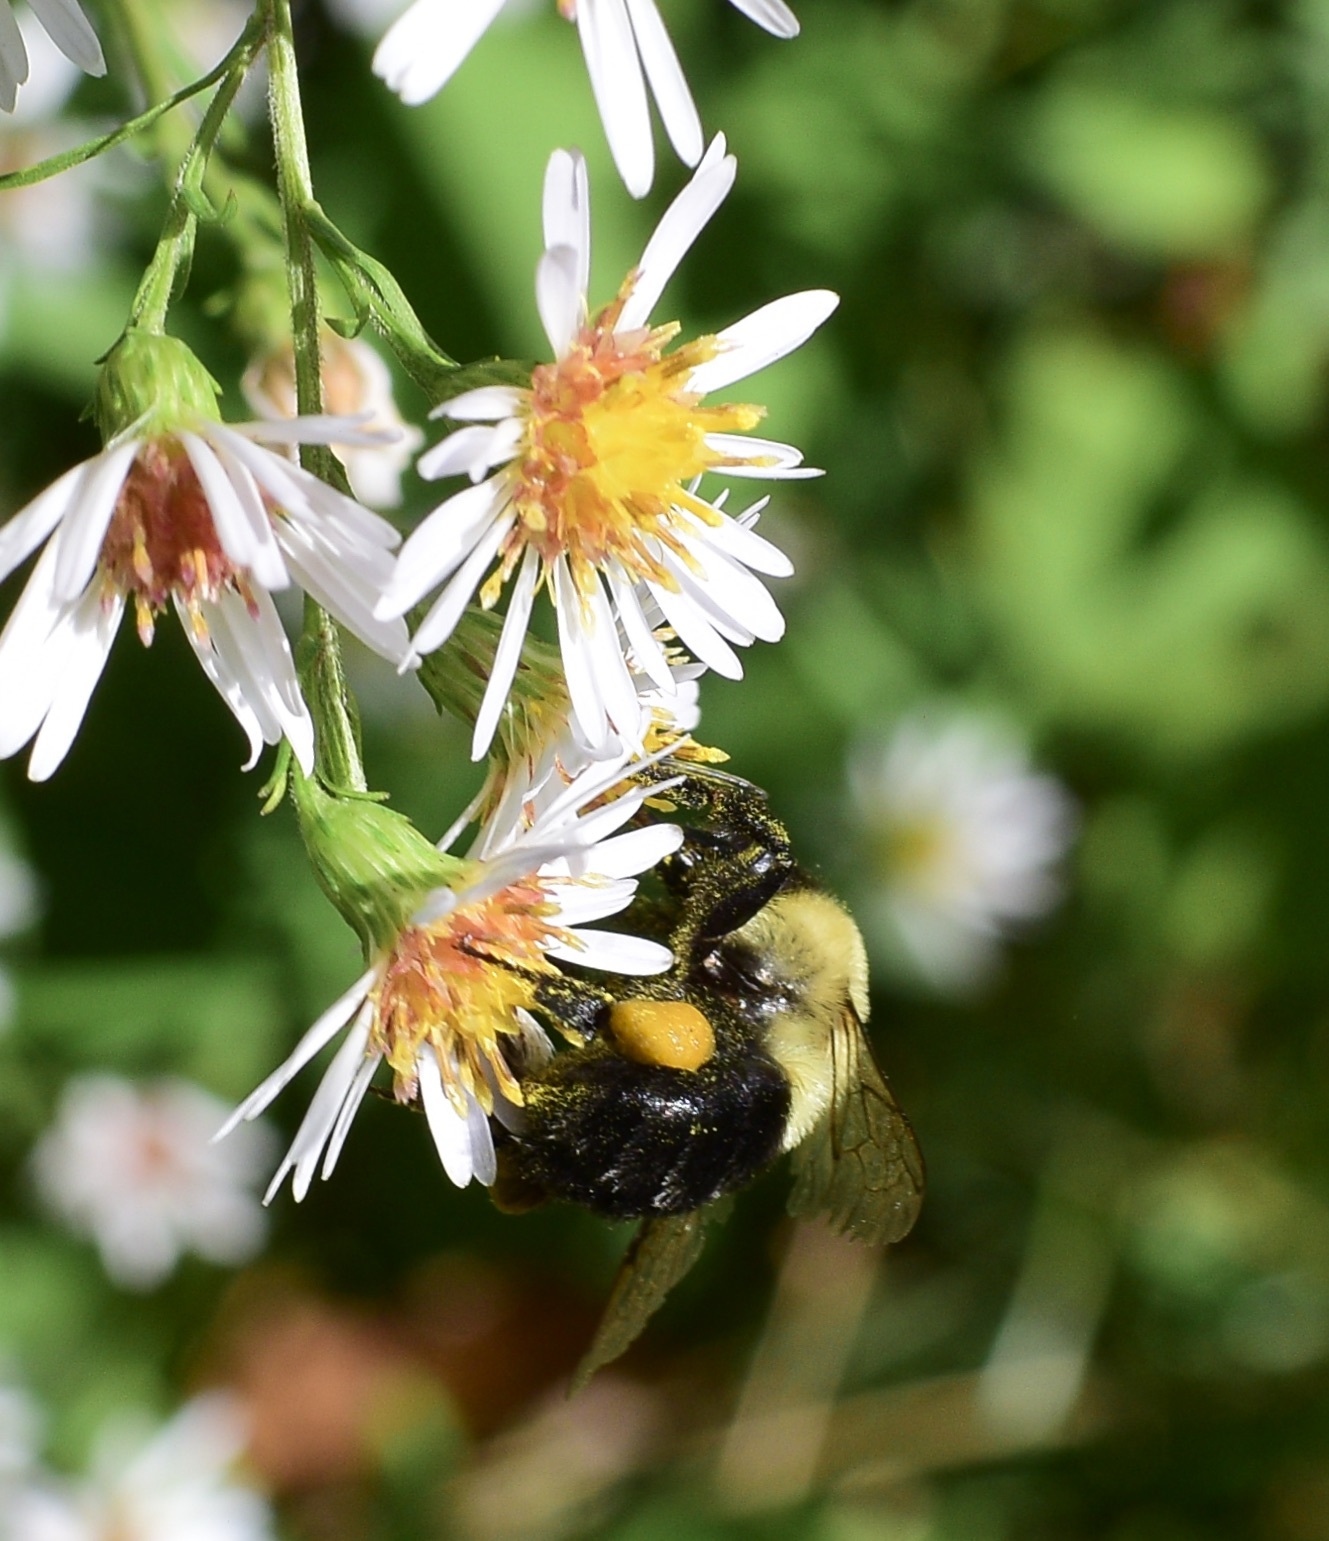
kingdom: Animalia
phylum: Arthropoda
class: Insecta
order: Hymenoptera
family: Apidae
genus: Bombus
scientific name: Bombus impatiens
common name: Common eastern bumble bee
